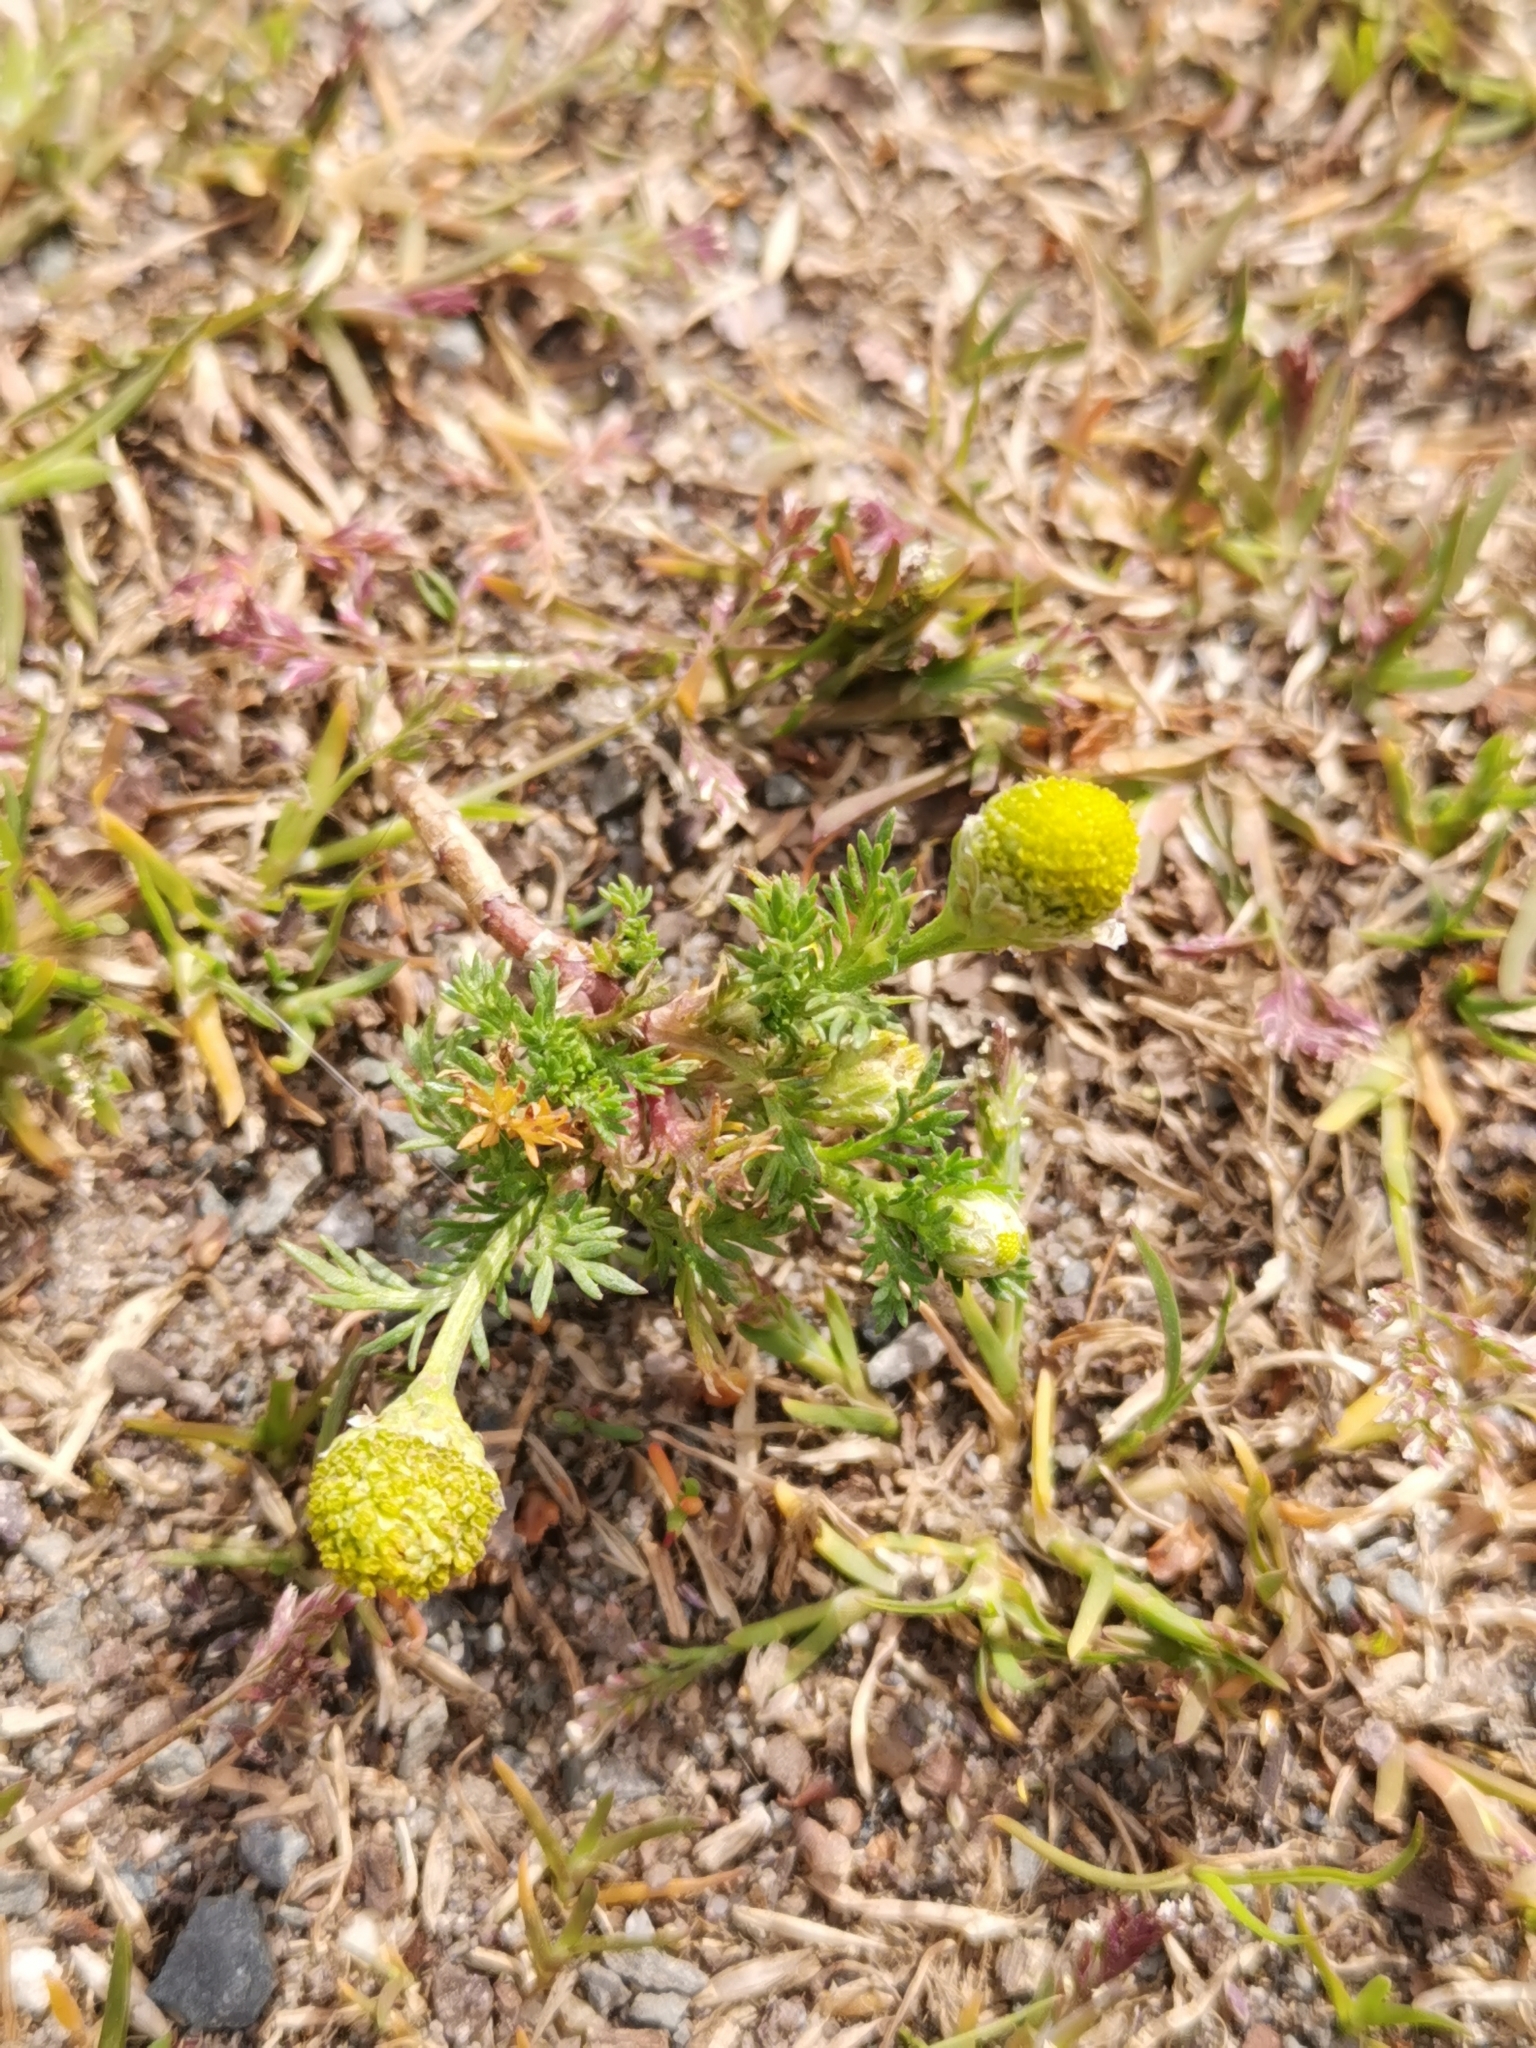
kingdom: Plantae
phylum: Tracheophyta
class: Magnoliopsida
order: Asterales
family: Asteraceae
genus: Matricaria
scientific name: Matricaria discoidea
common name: Disc mayweed
